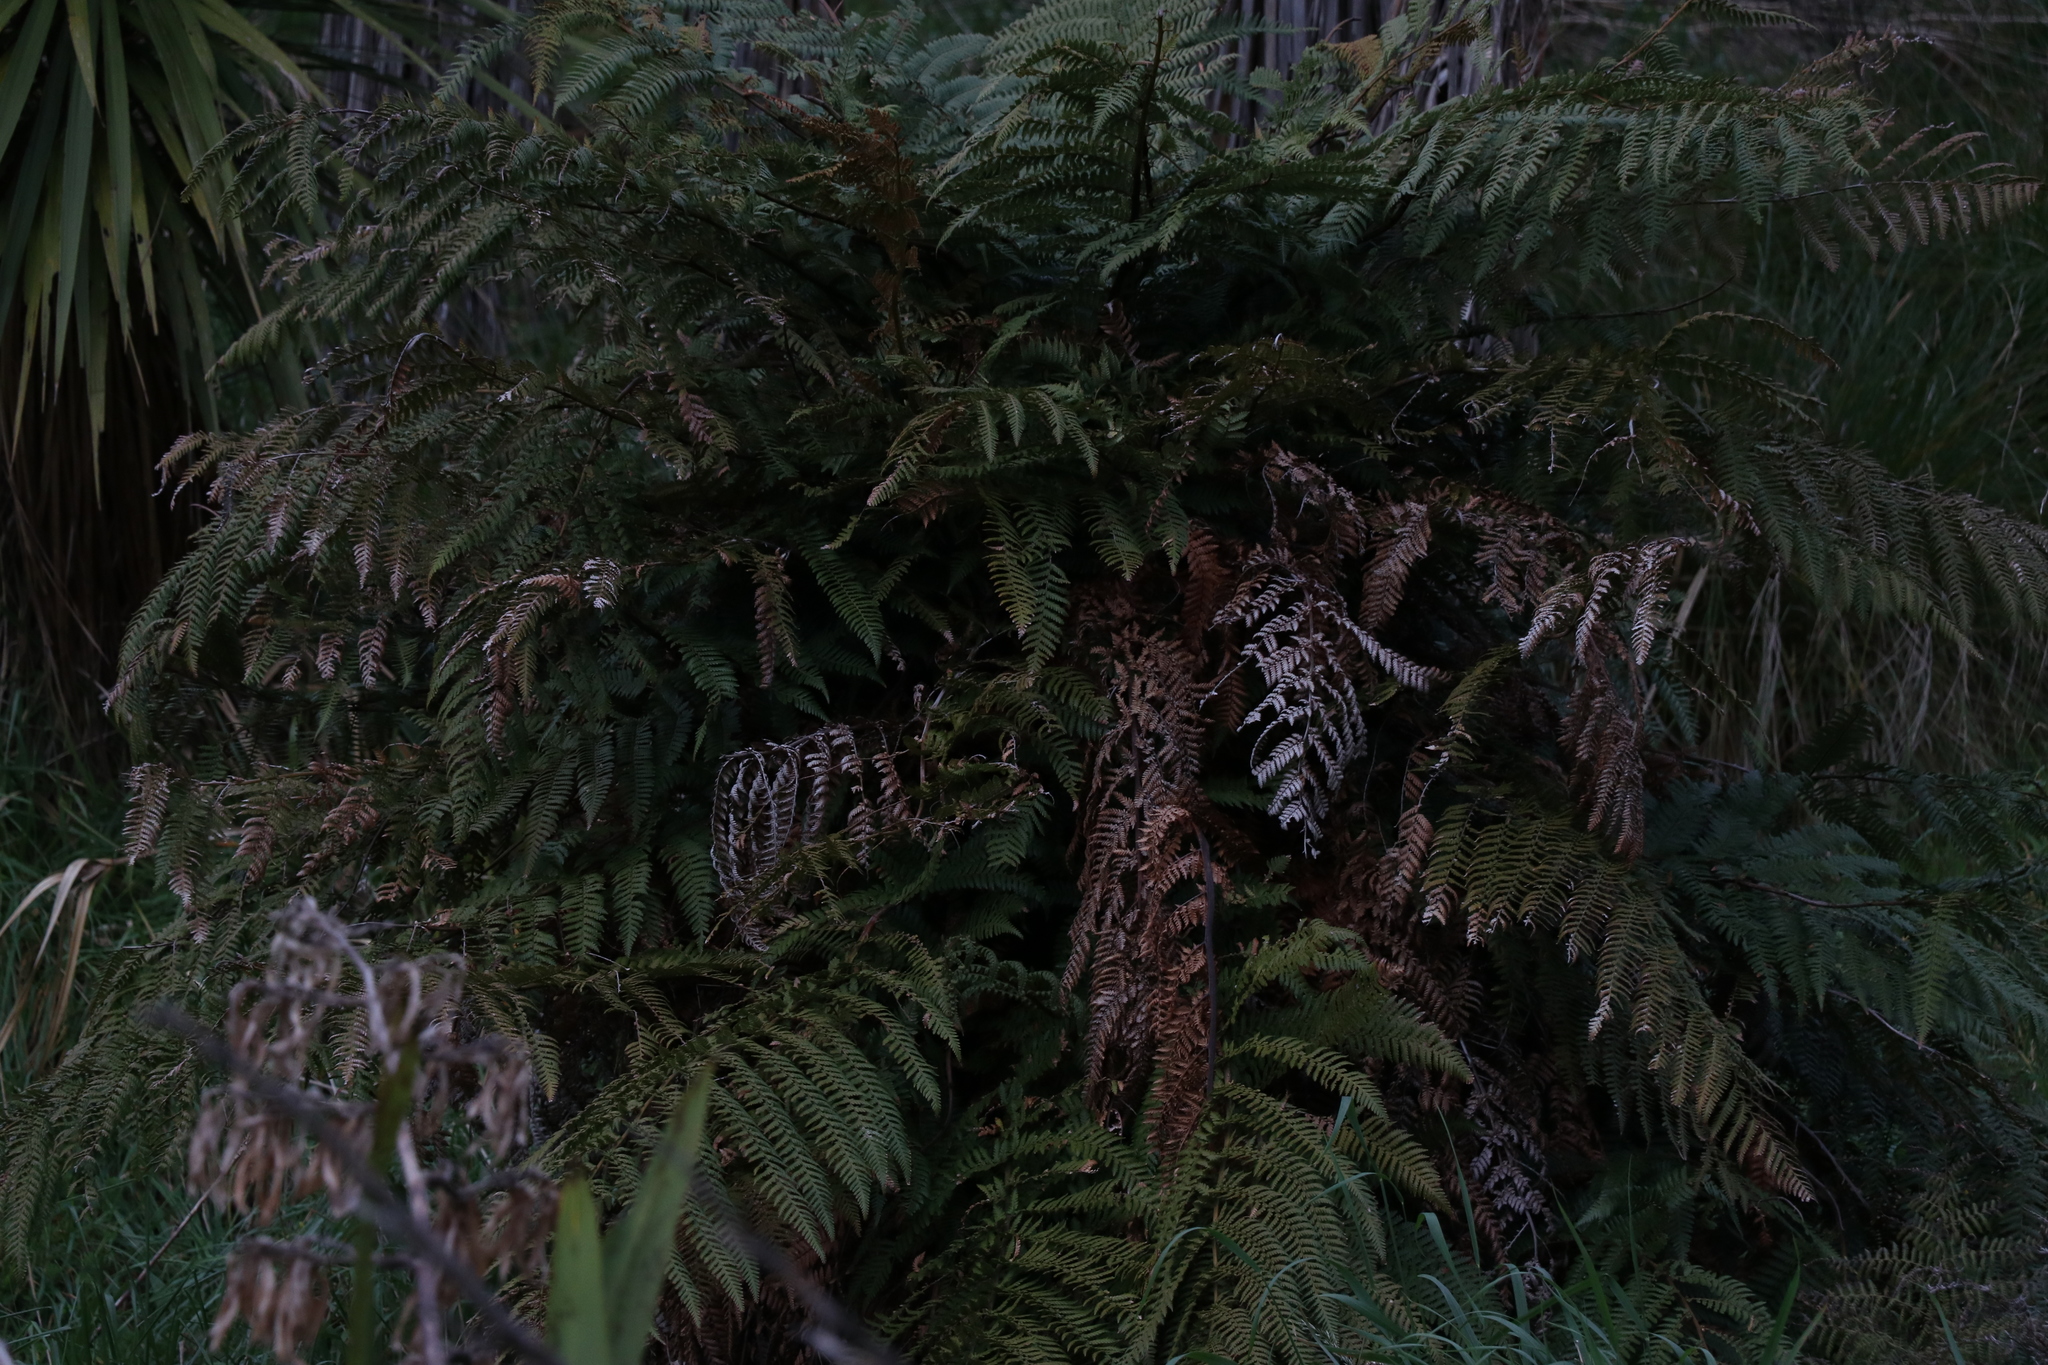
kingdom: Plantae
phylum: Tracheophyta
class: Polypodiopsida
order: Cyatheales
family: Dicksoniaceae
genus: Dicksonia
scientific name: Dicksonia squarrosa
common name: Hard treefern
